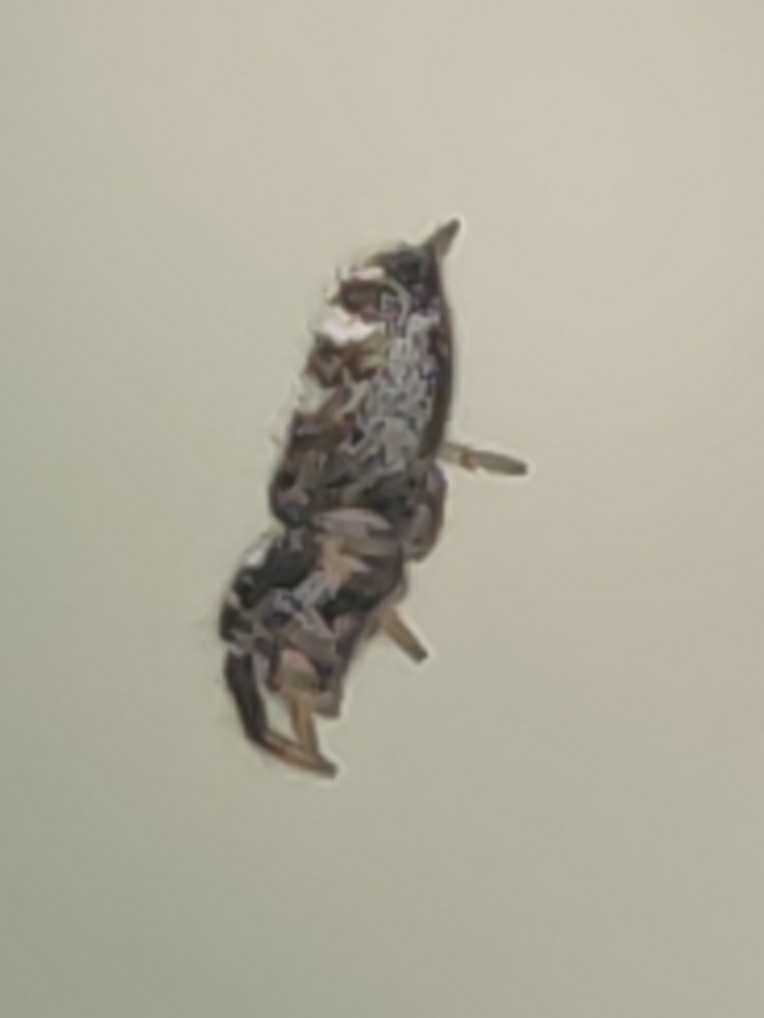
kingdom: Animalia
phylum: Arthropoda
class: Arachnida
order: Araneae
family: Salticidae
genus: Salticus
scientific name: Salticus scenicus
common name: Zebra jumper
